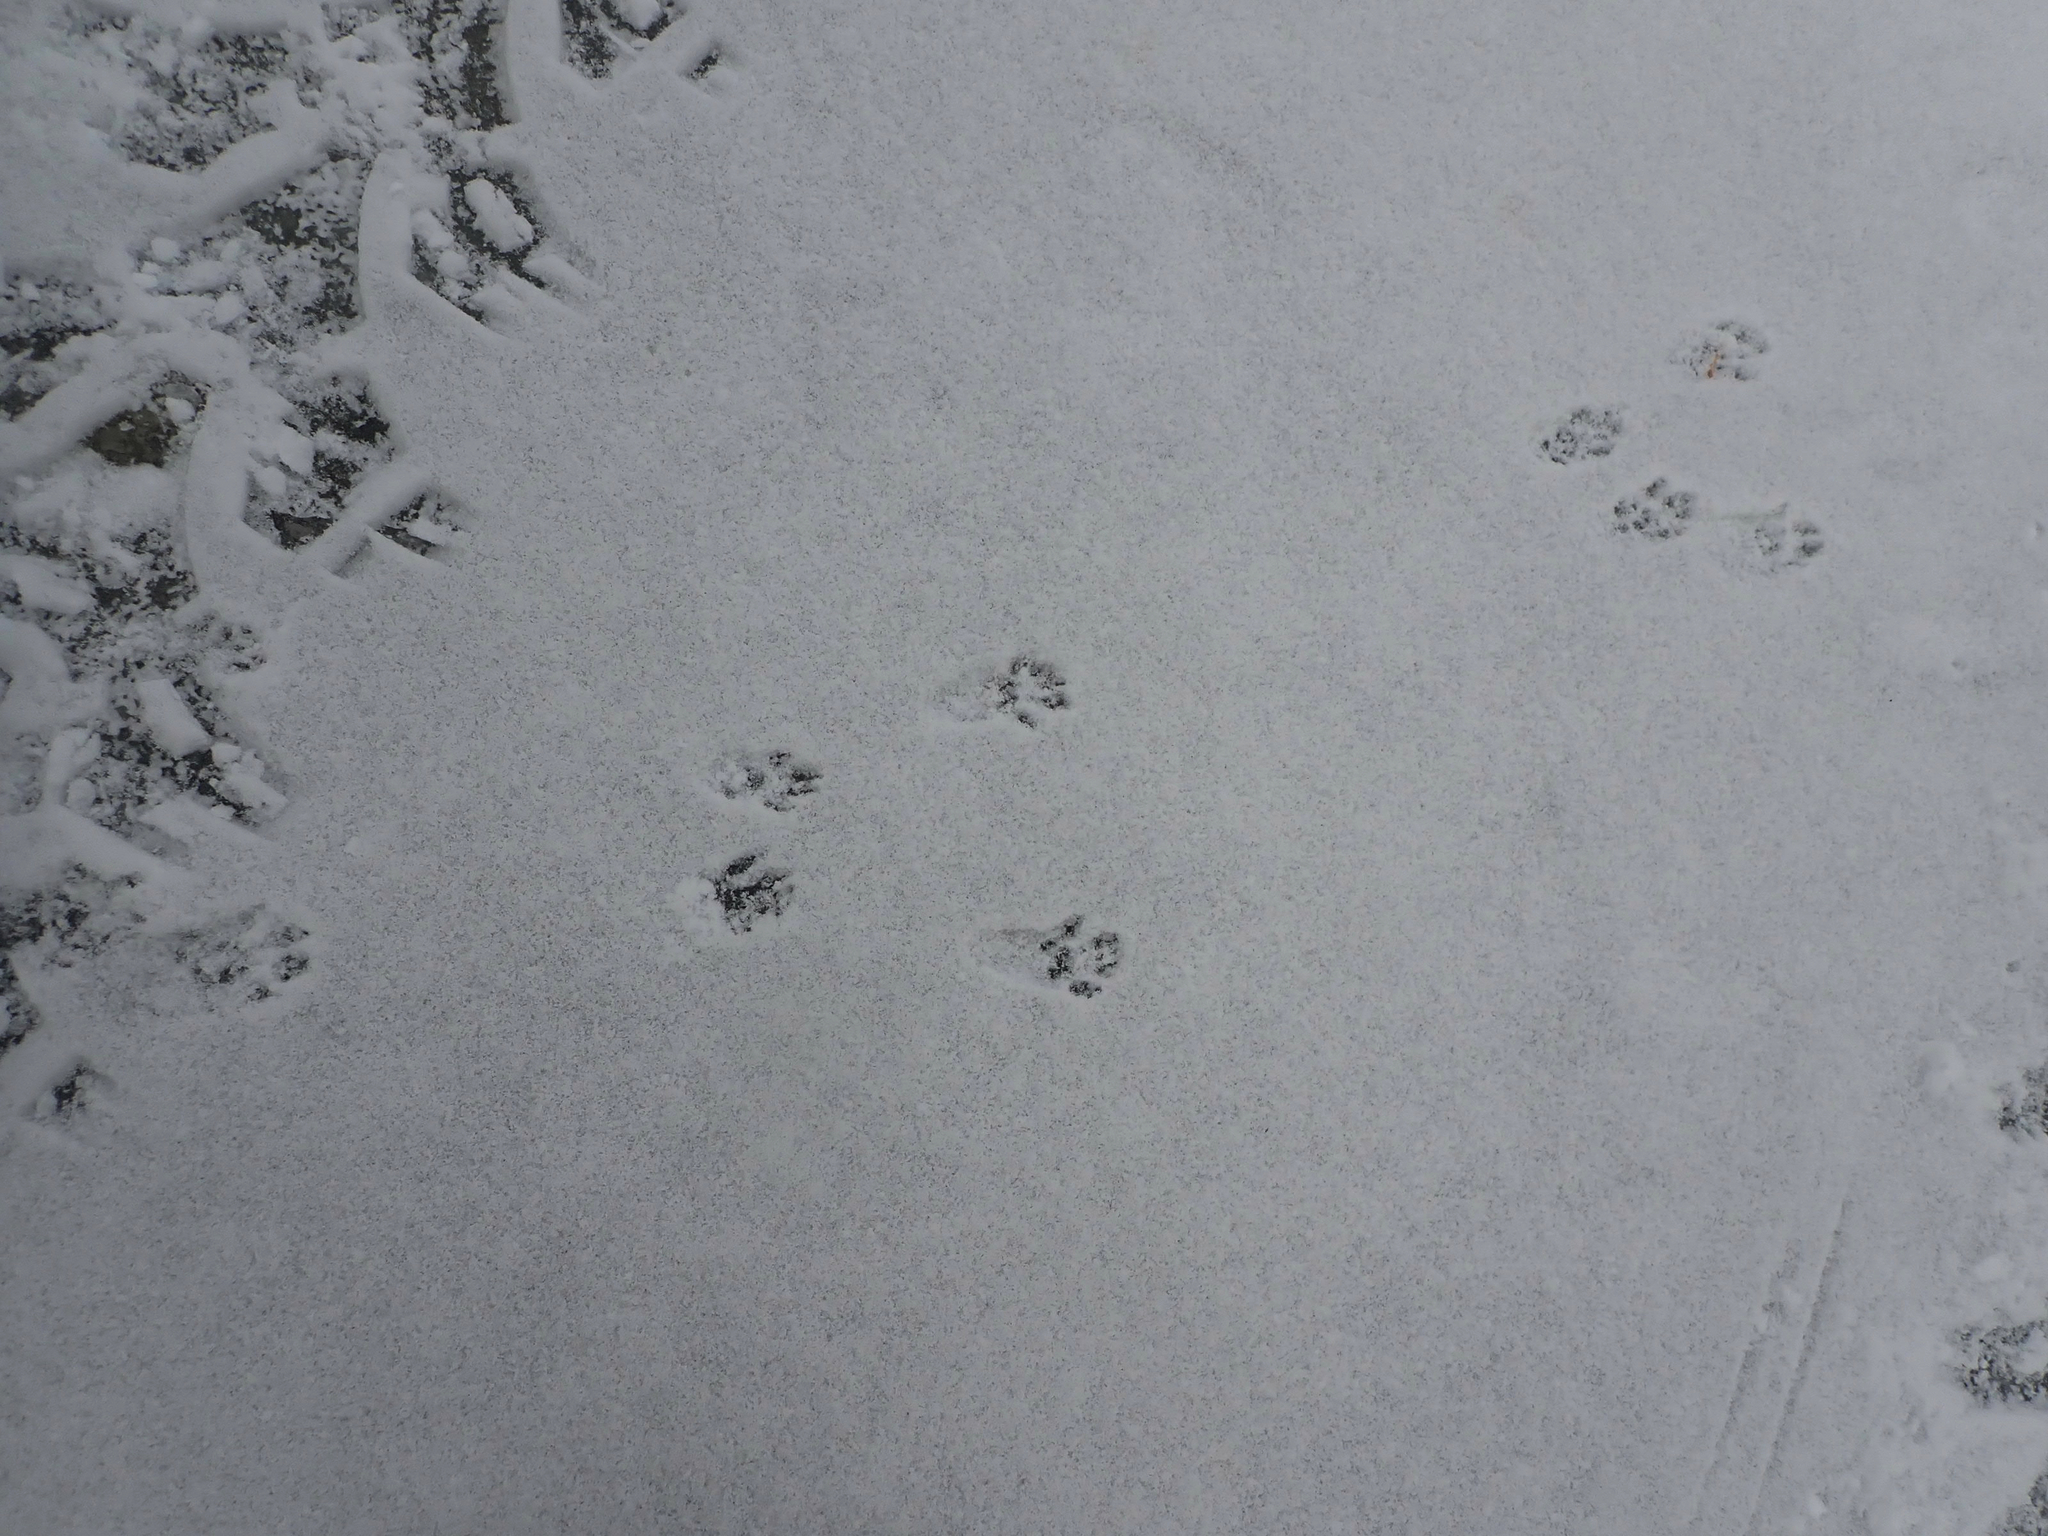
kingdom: Animalia
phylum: Chordata
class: Mammalia
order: Rodentia
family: Sciuridae
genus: Sciurus
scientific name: Sciurus carolinensis
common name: Eastern gray squirrel
